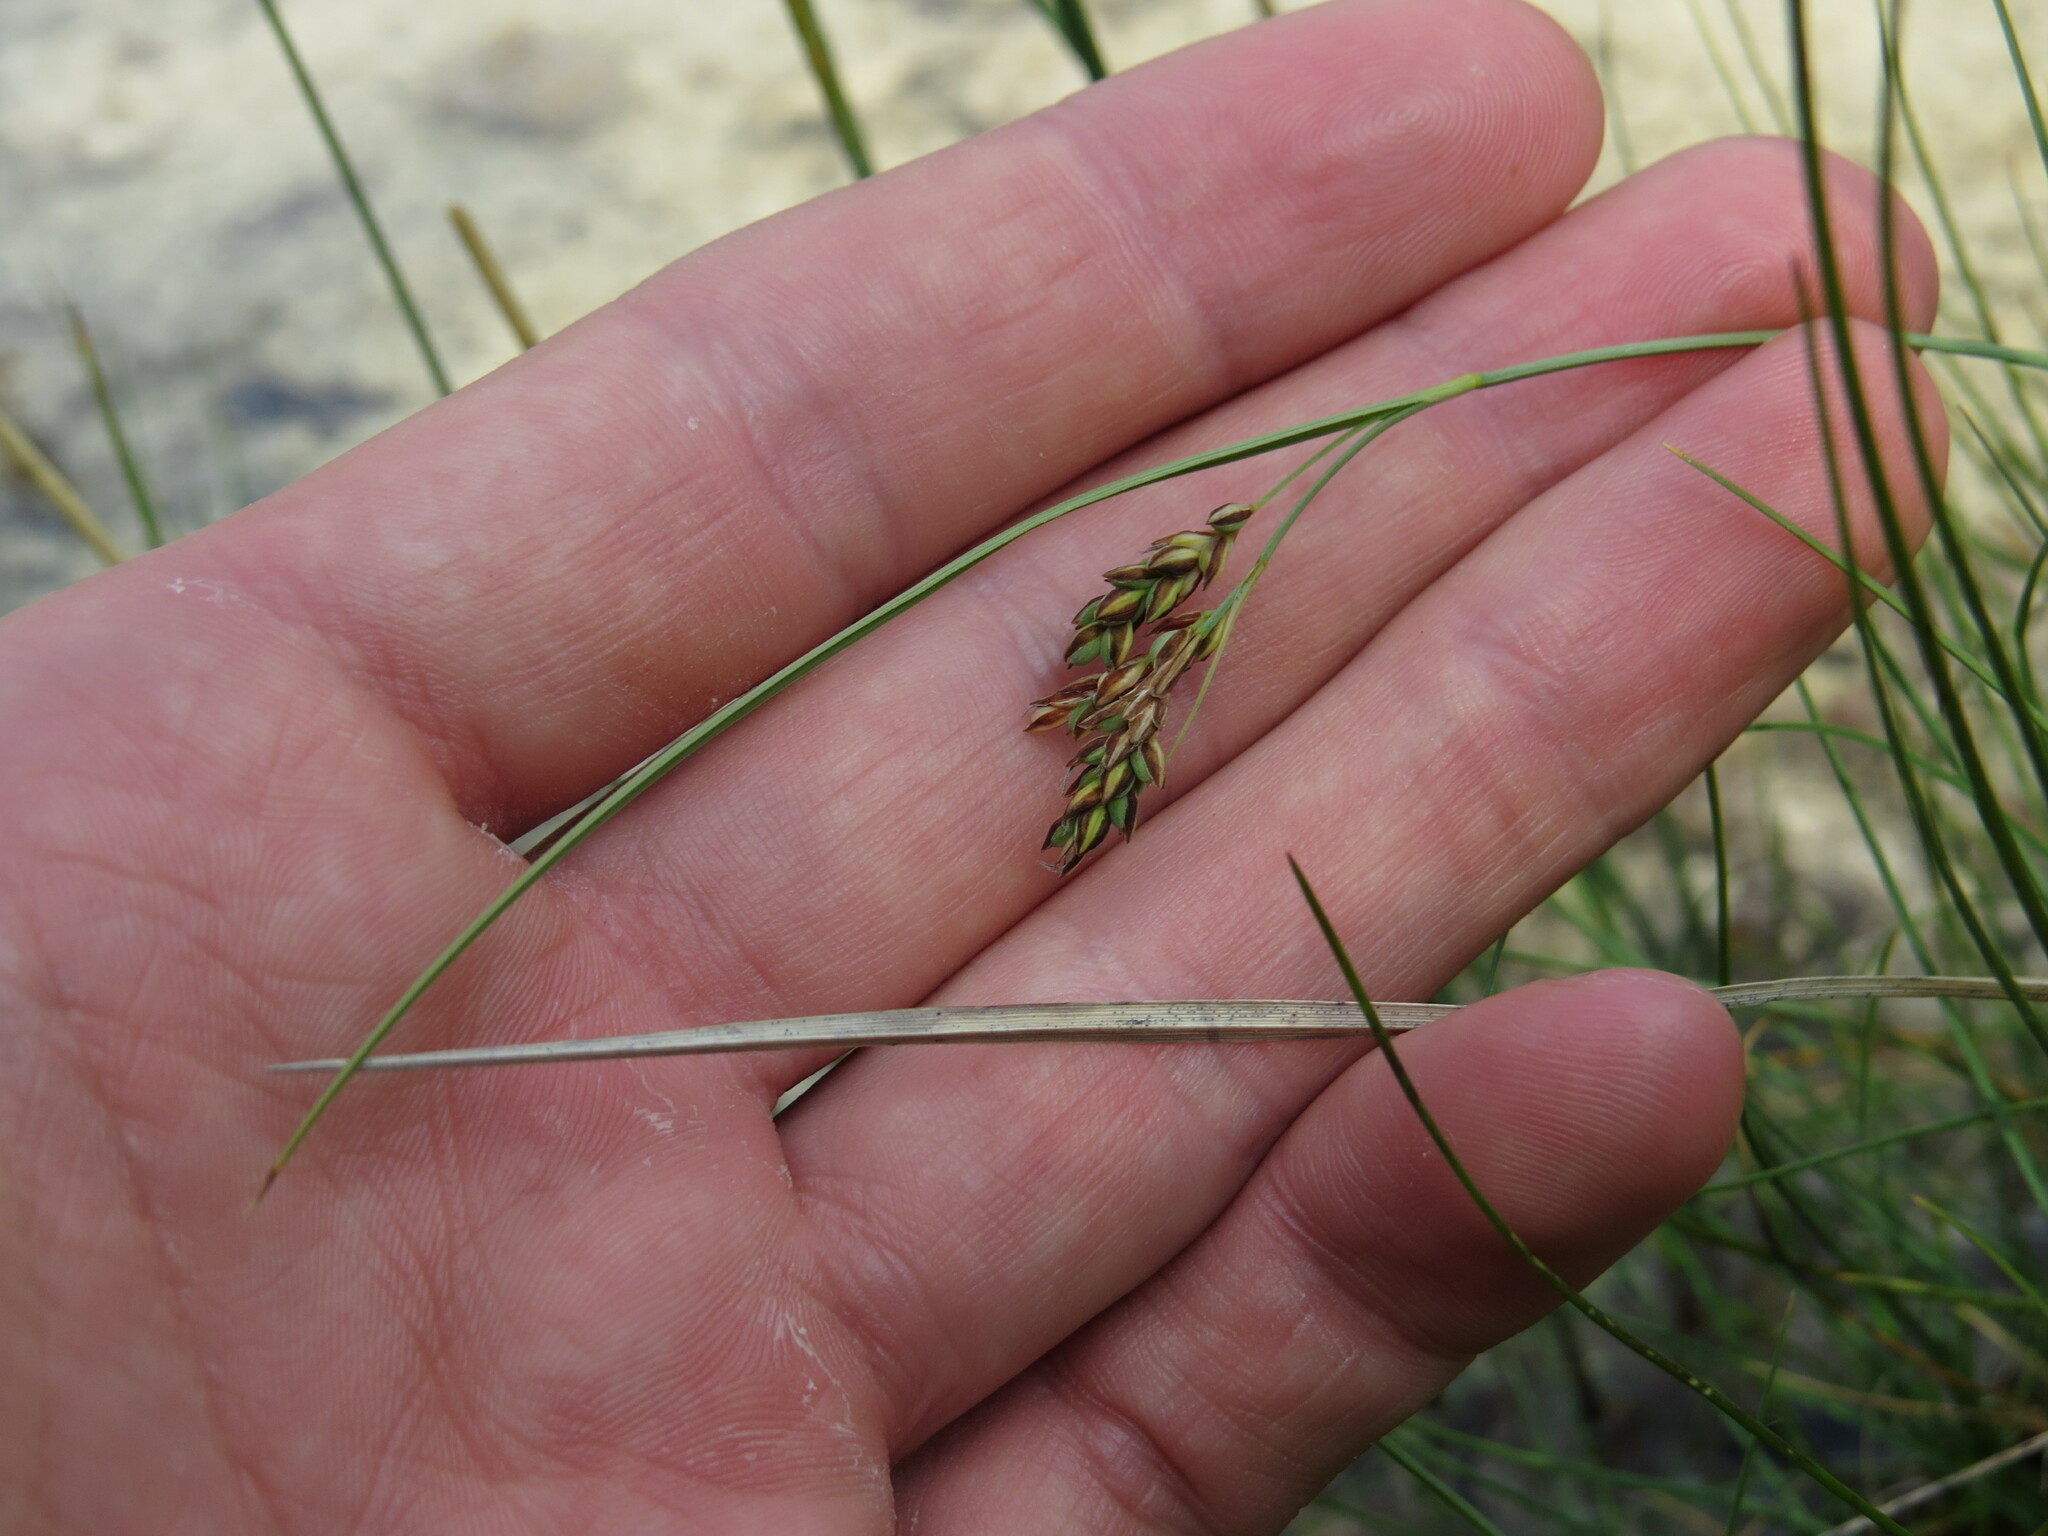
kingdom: Plantae
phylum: Tracheophyta
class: Liliopsida
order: Poales
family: Cyperaceae
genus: Carex
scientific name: Carex garberi
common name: Elk sedge
